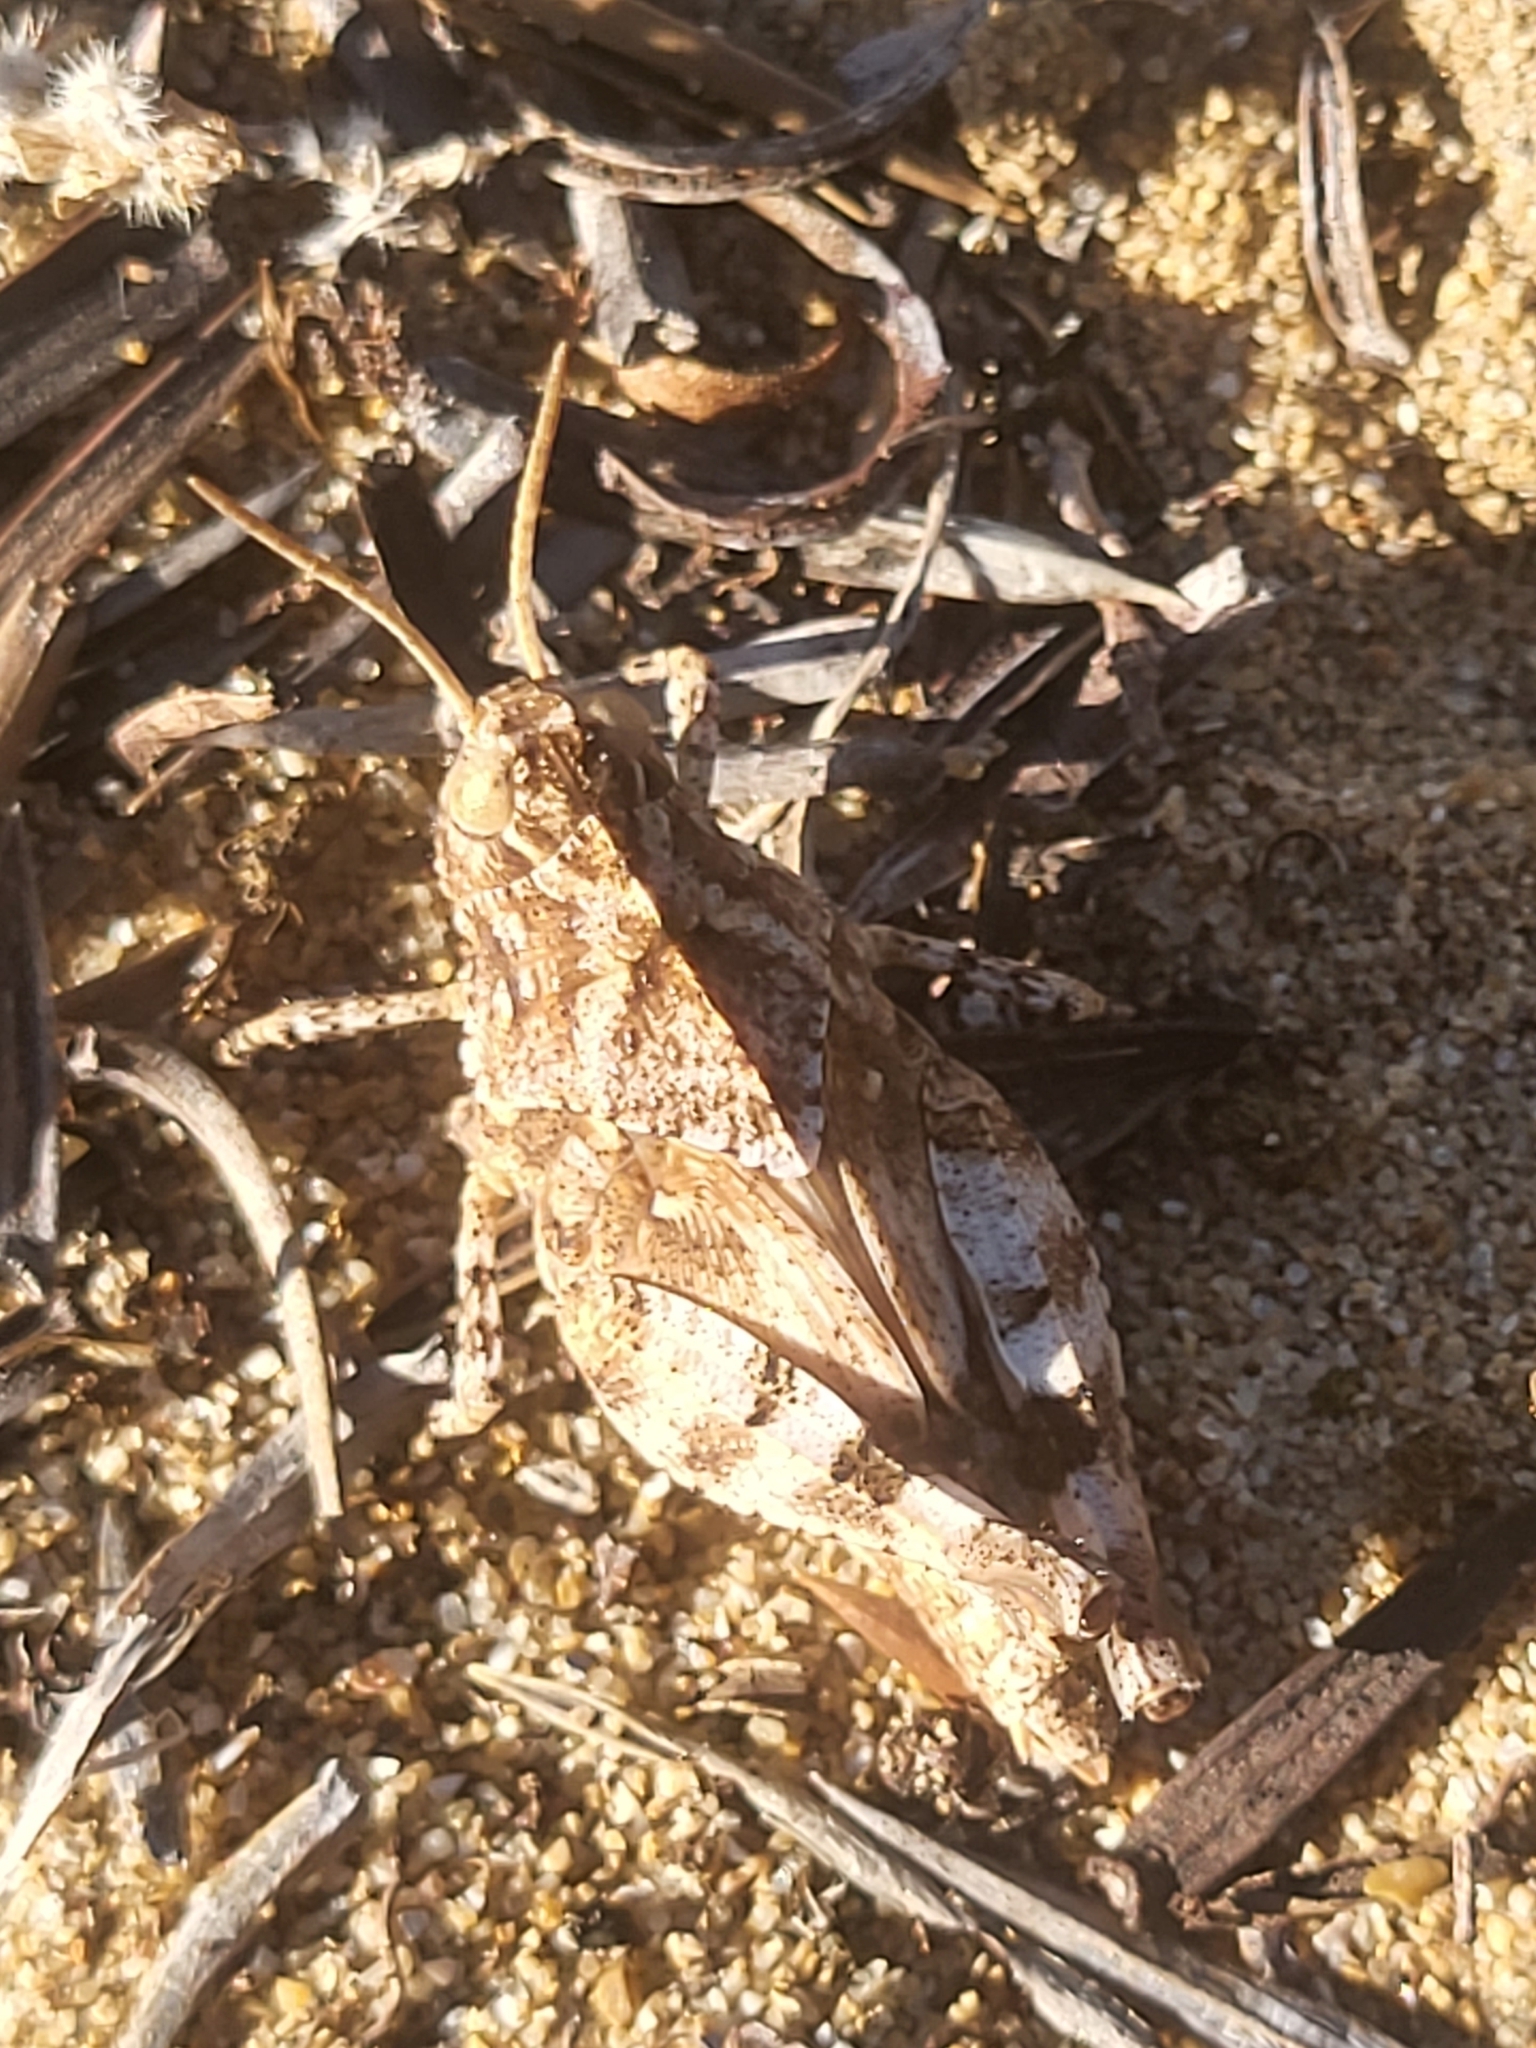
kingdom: Animalia
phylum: Arthropoda
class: Insecta
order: Orthoptera
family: Acrididae
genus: Oedipoda
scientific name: Oedipoda
